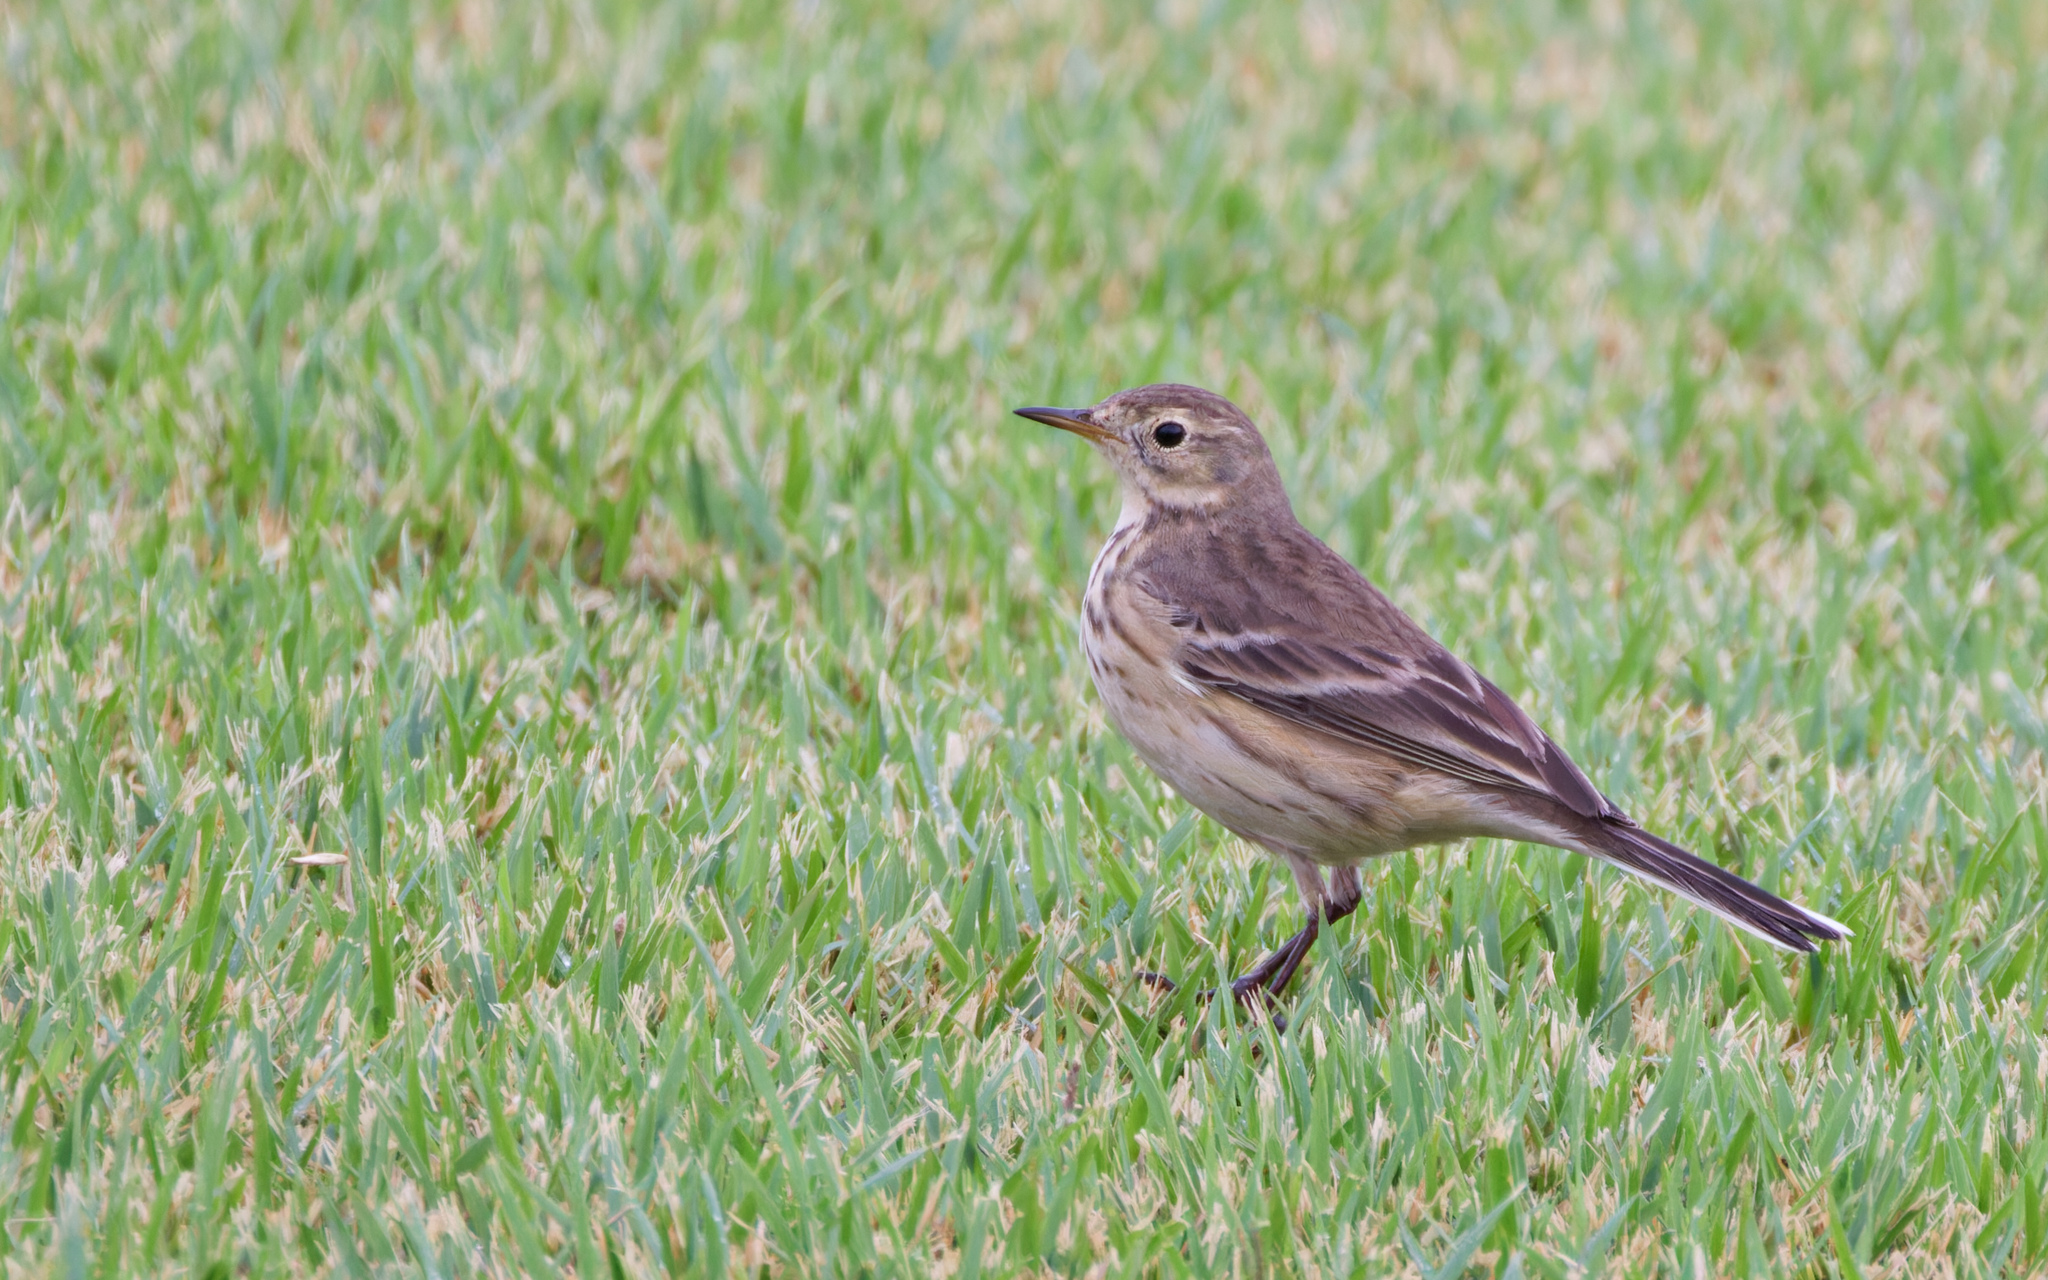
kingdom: Animalia
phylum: Chordata
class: Aves
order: Passeriformes
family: Motacillidae
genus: Anthus
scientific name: Anthus rubescens
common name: Buff-bellied pipit
